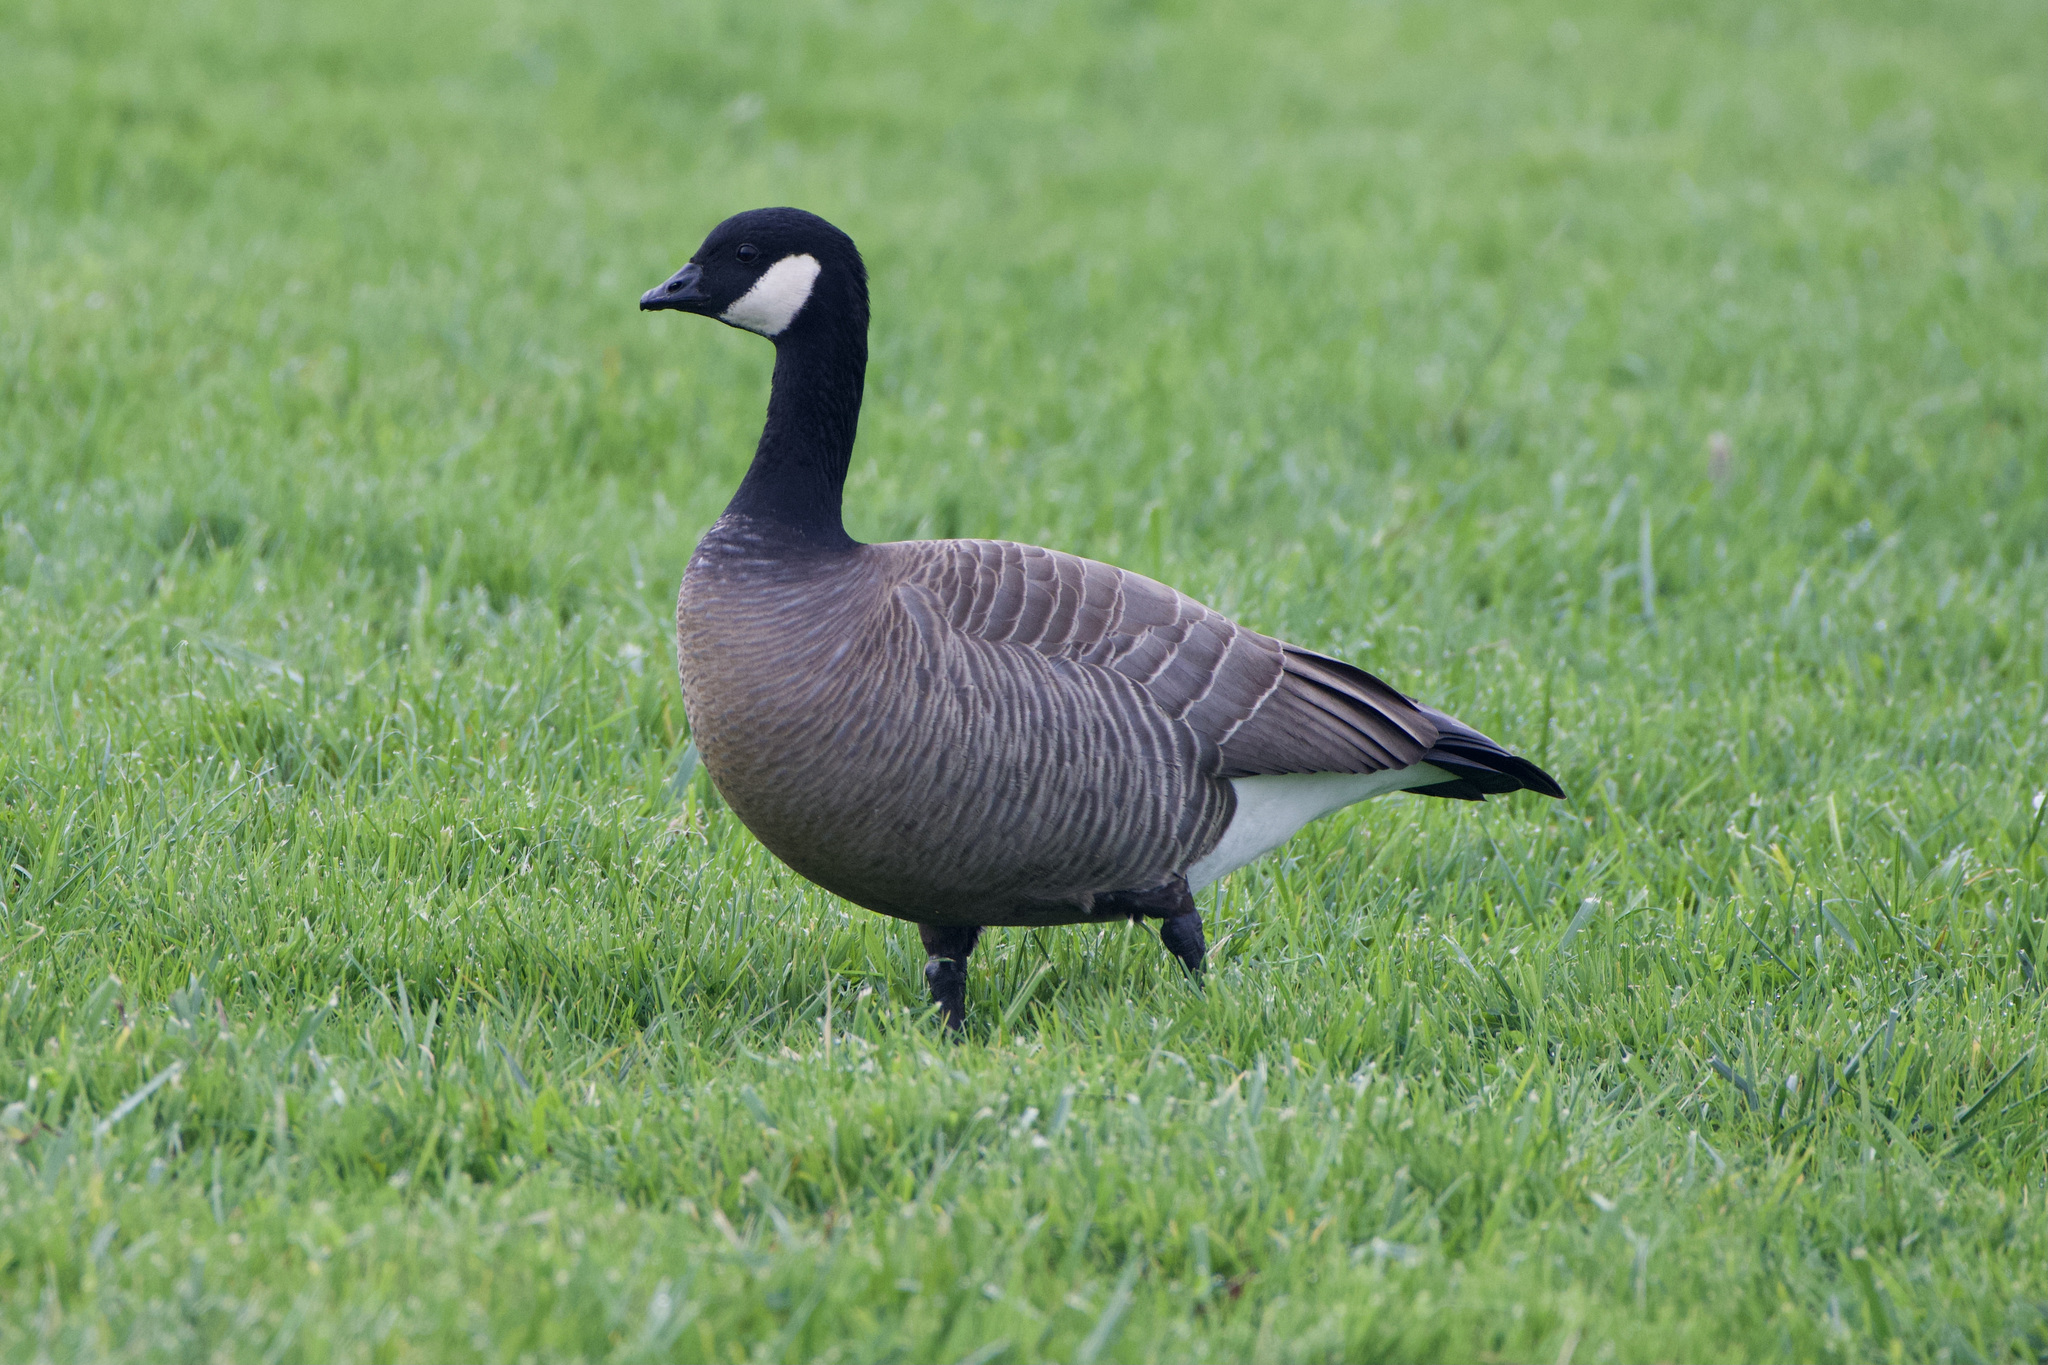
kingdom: Animalia
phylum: Chordata
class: Aves
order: Anseriformes
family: Anatidae
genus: Branta
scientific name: Branta hutchinsii
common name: Cackling goose
